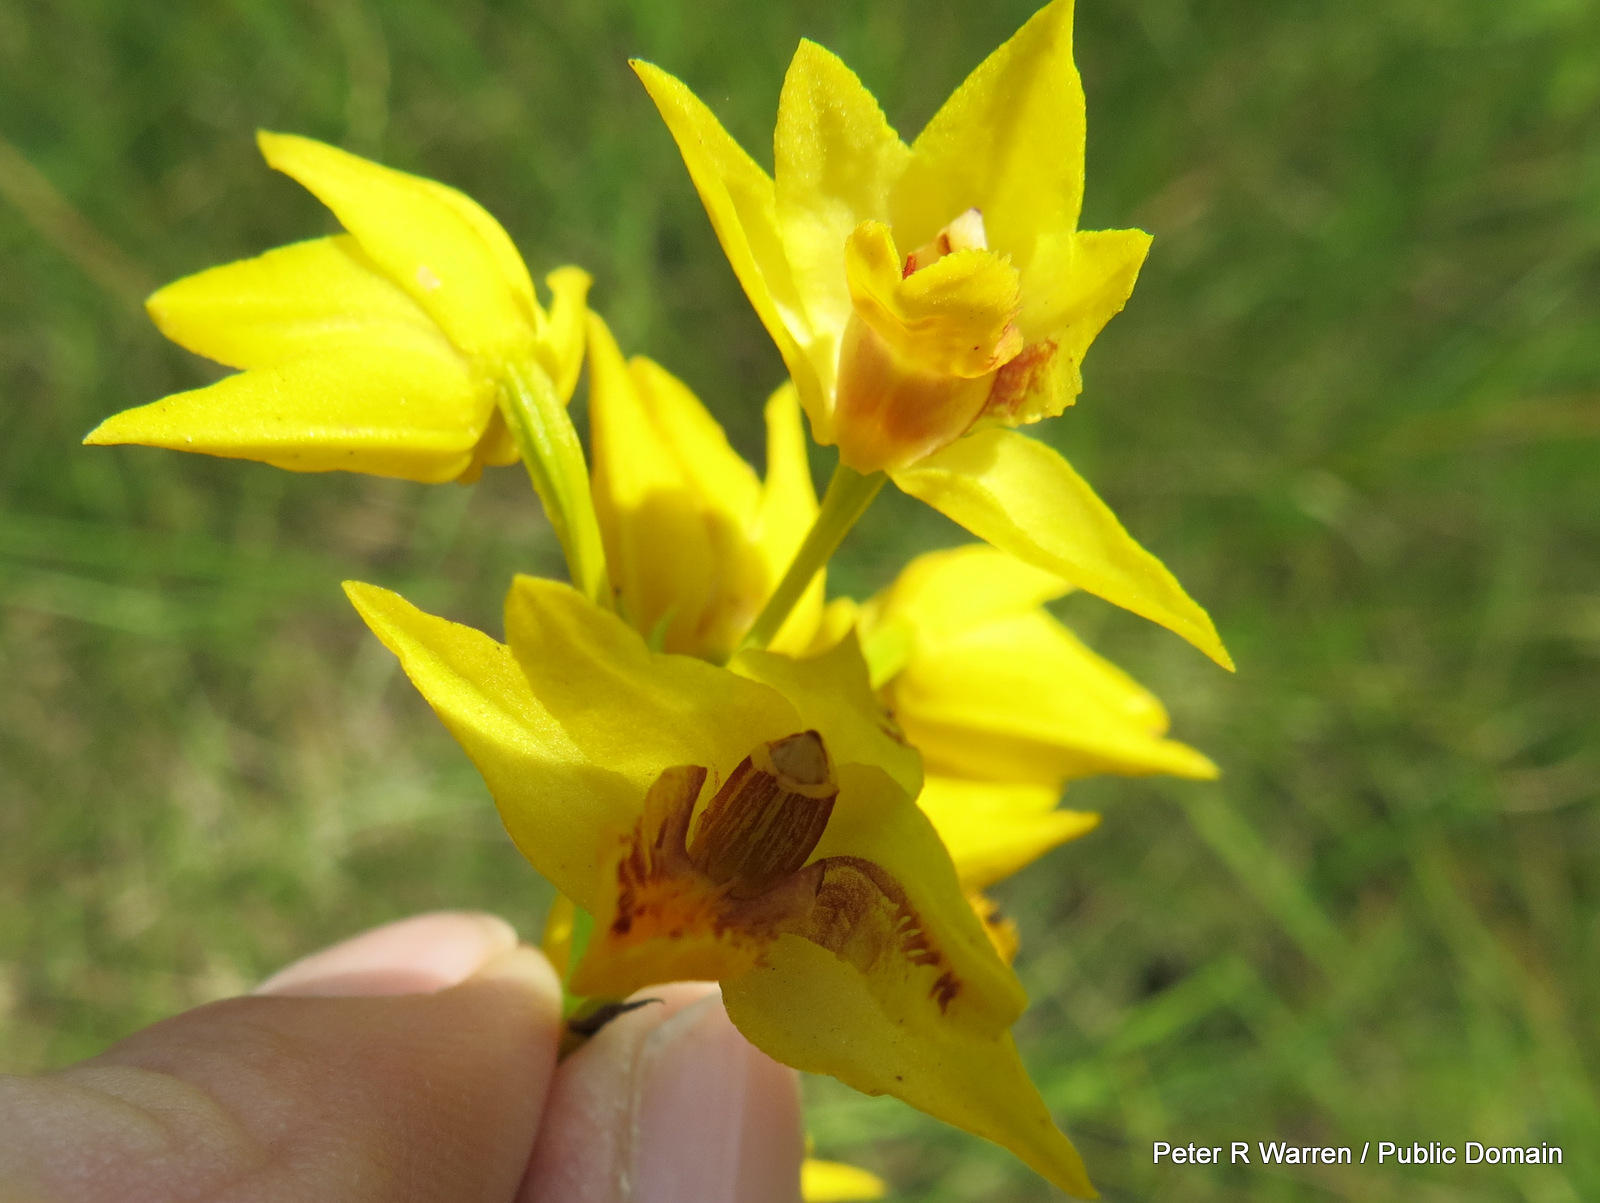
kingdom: Plantae
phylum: Tracheophyta
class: Liliopsida
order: Asparagales
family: Orchidaceae
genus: Eulophia
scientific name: Eulophia odontoglossa
